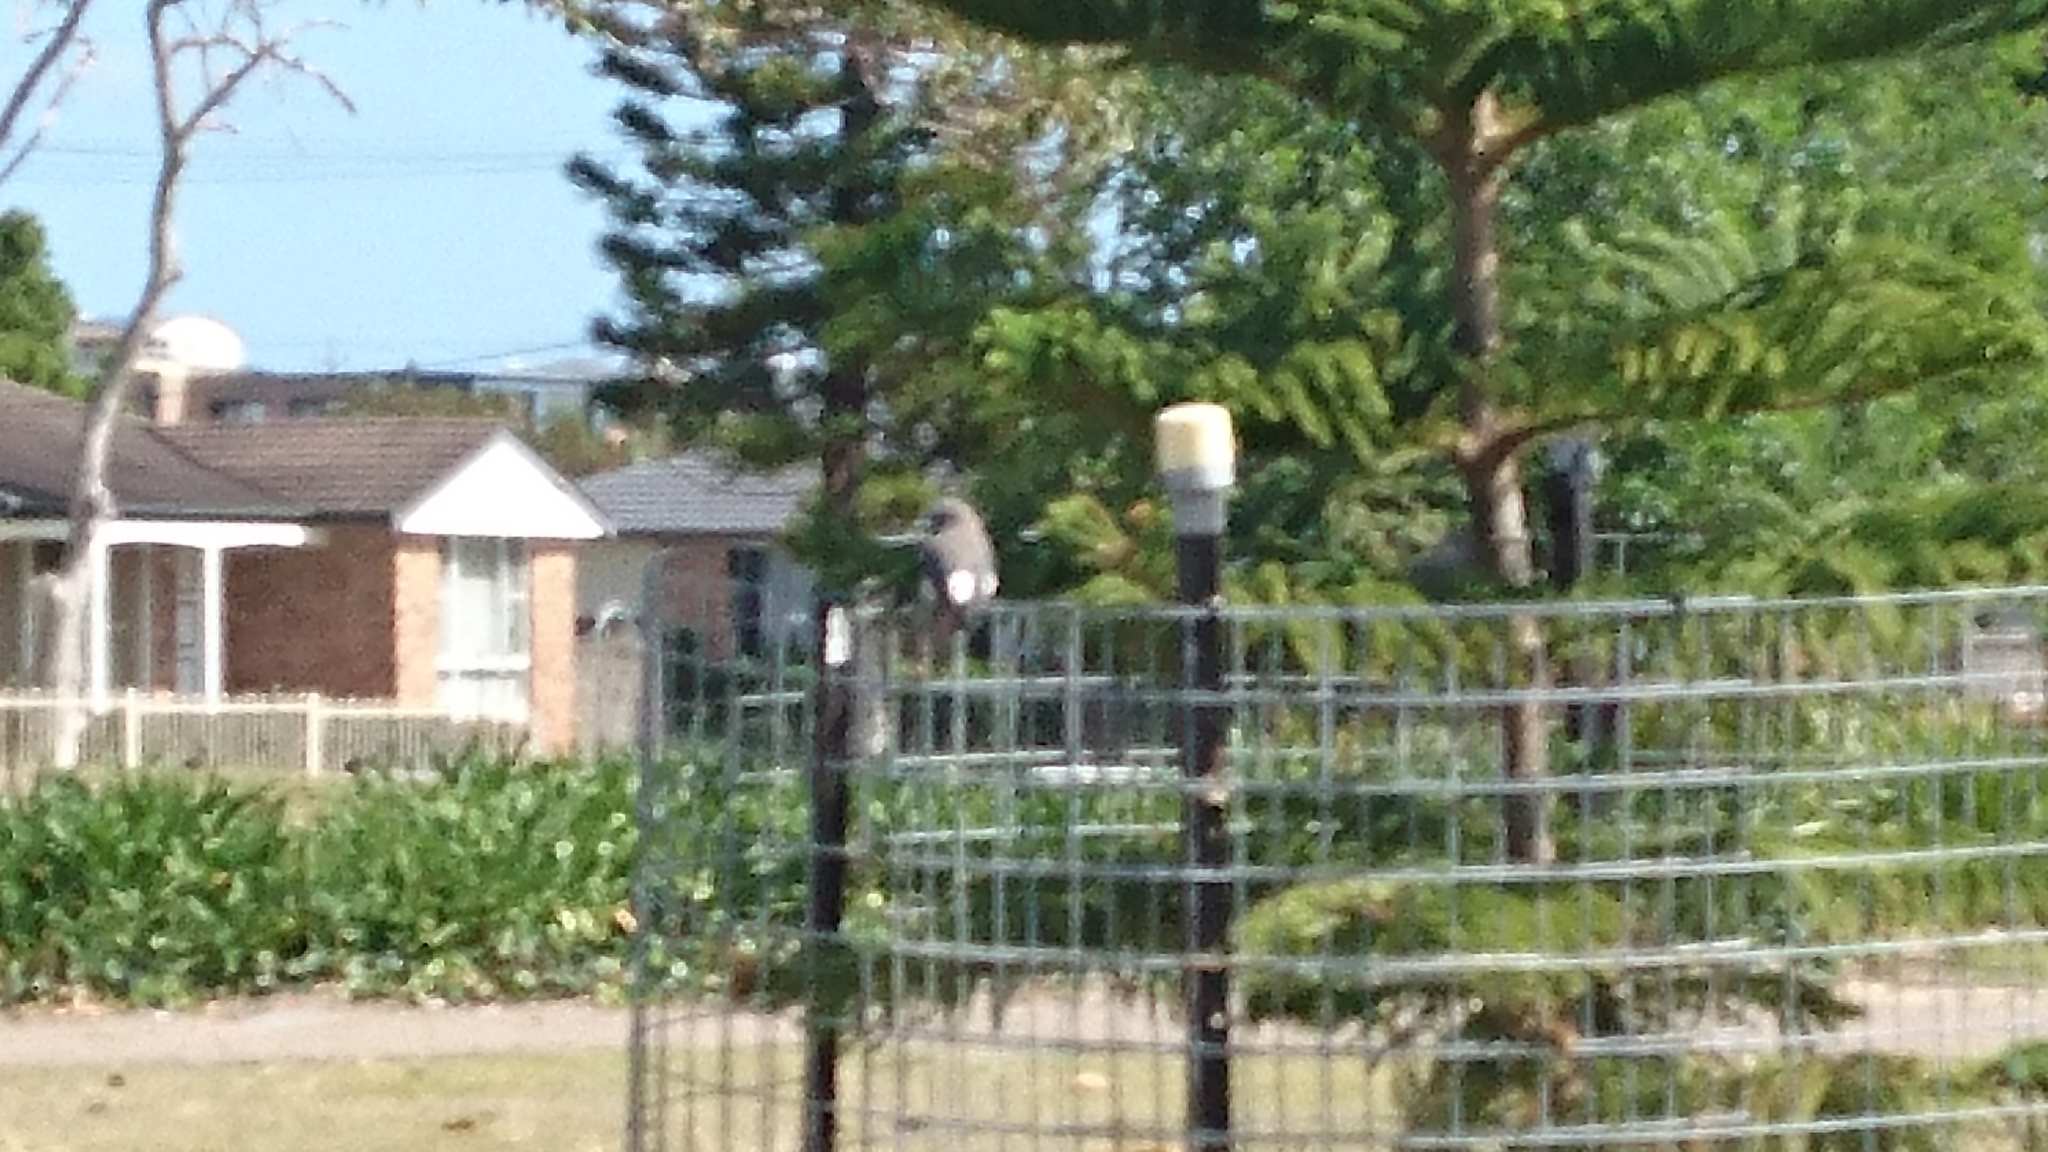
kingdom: Animalia
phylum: Chordata
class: Aves
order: Passeriformes
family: Artamidae
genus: Artamus
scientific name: Artamus leucoryn
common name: White-breasted woodswallow
